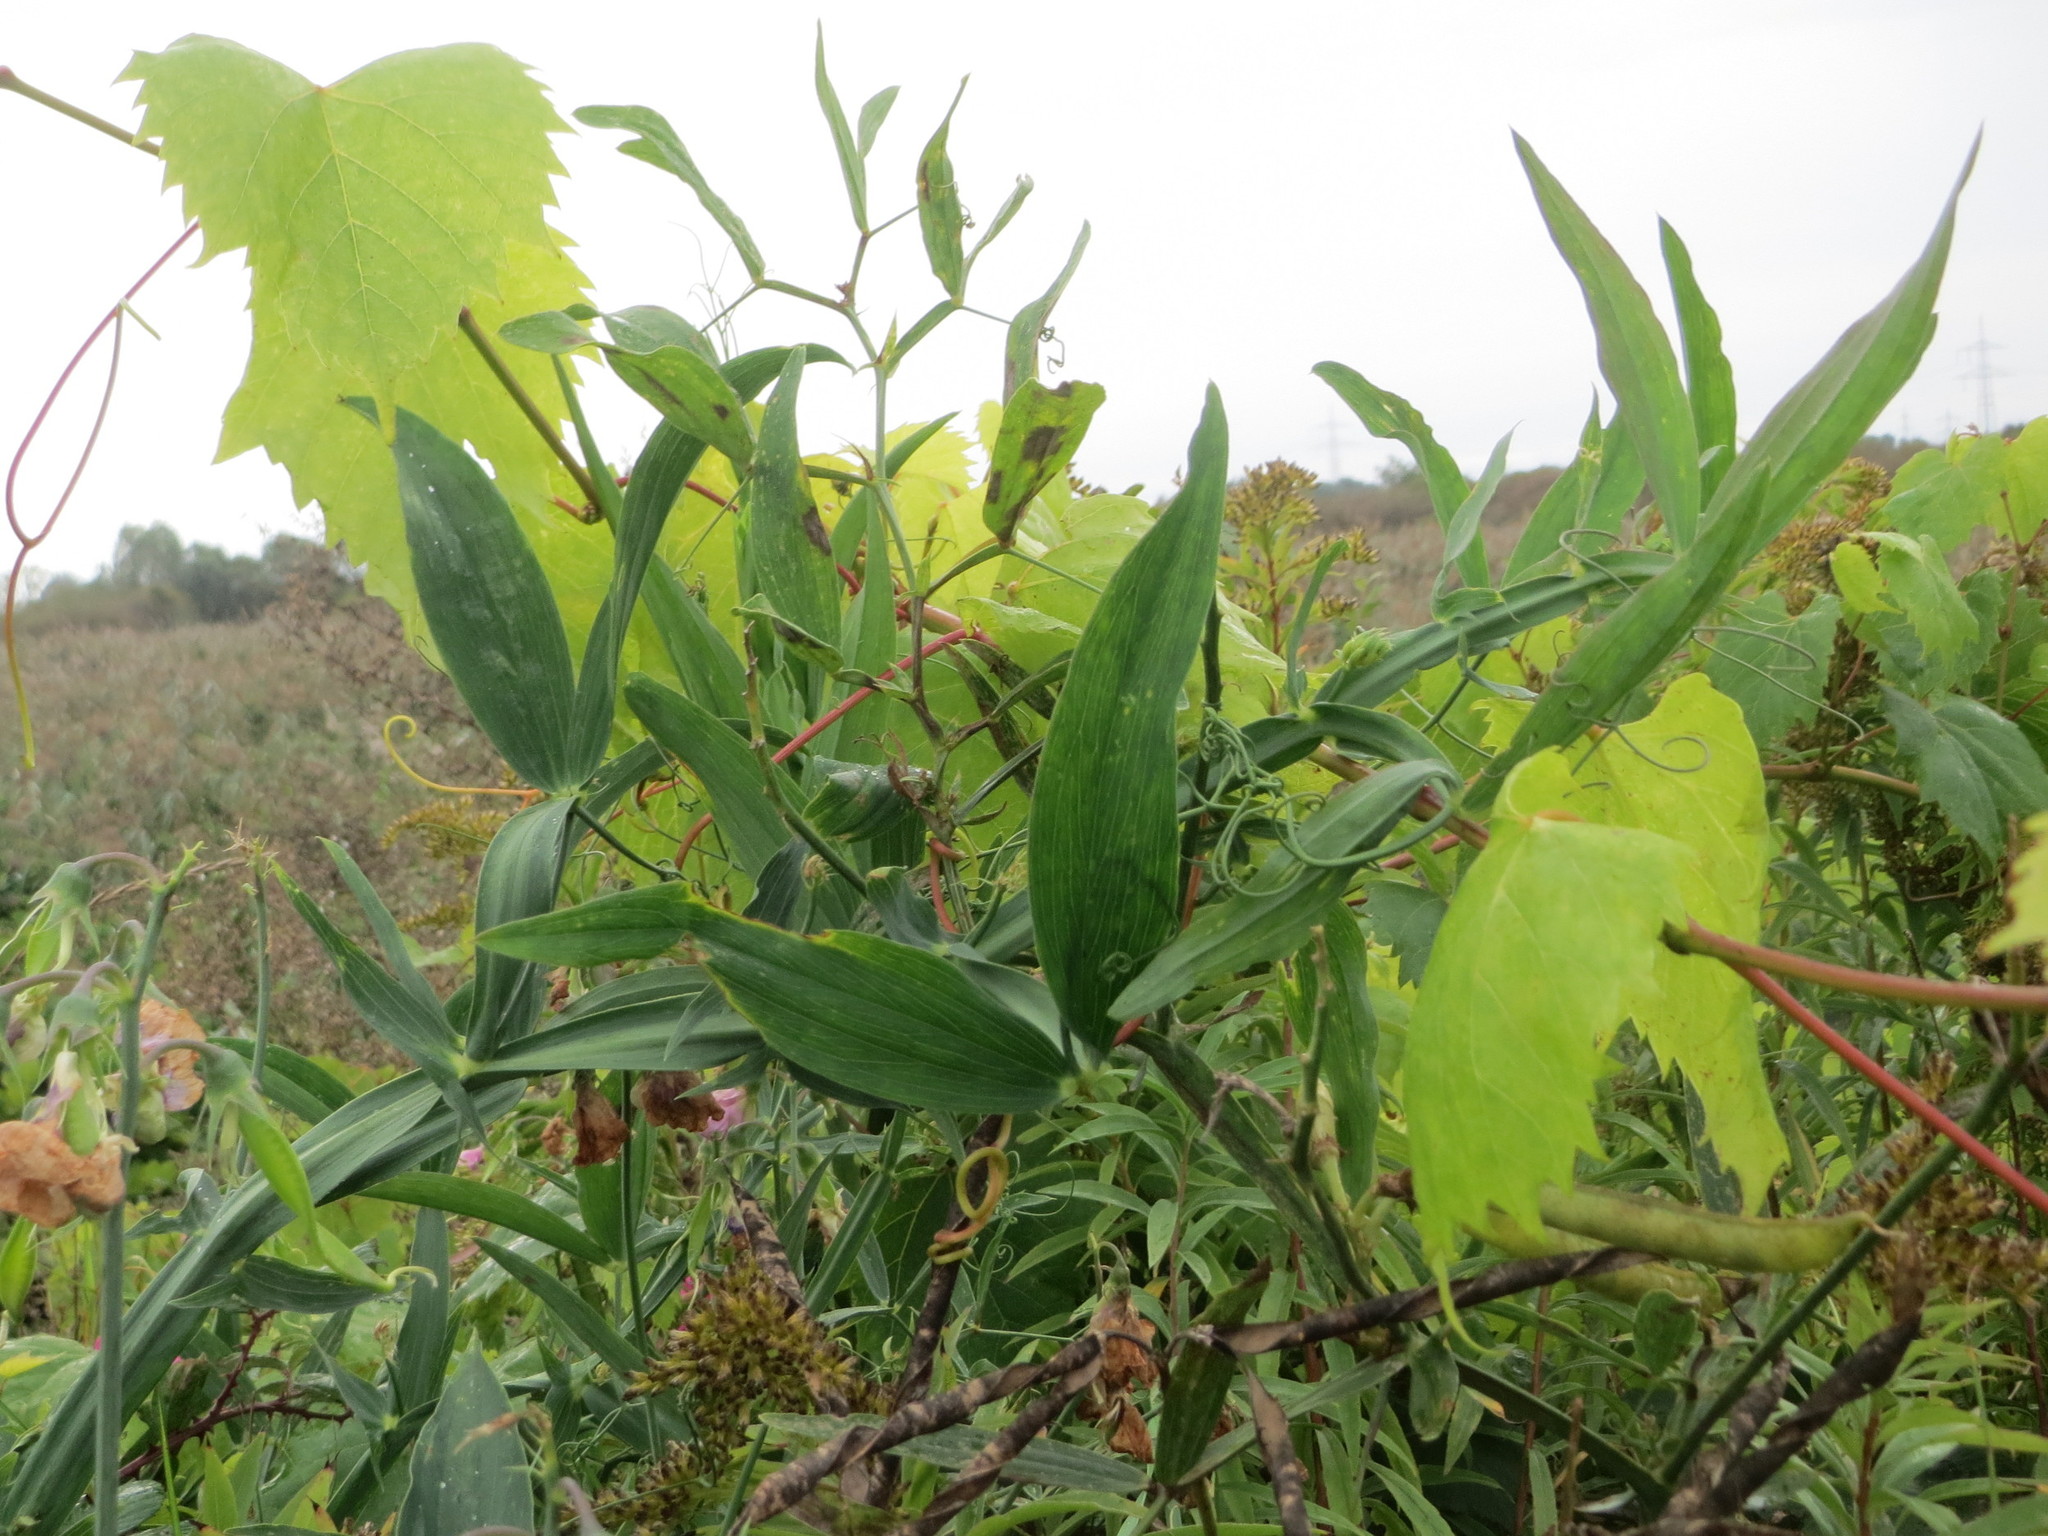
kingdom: Plantae
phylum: Tracheophyta
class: Magnoliopsida
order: Vitales
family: Vitaceae
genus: Vitis
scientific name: Vitis vinifera
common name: Grape-vine
